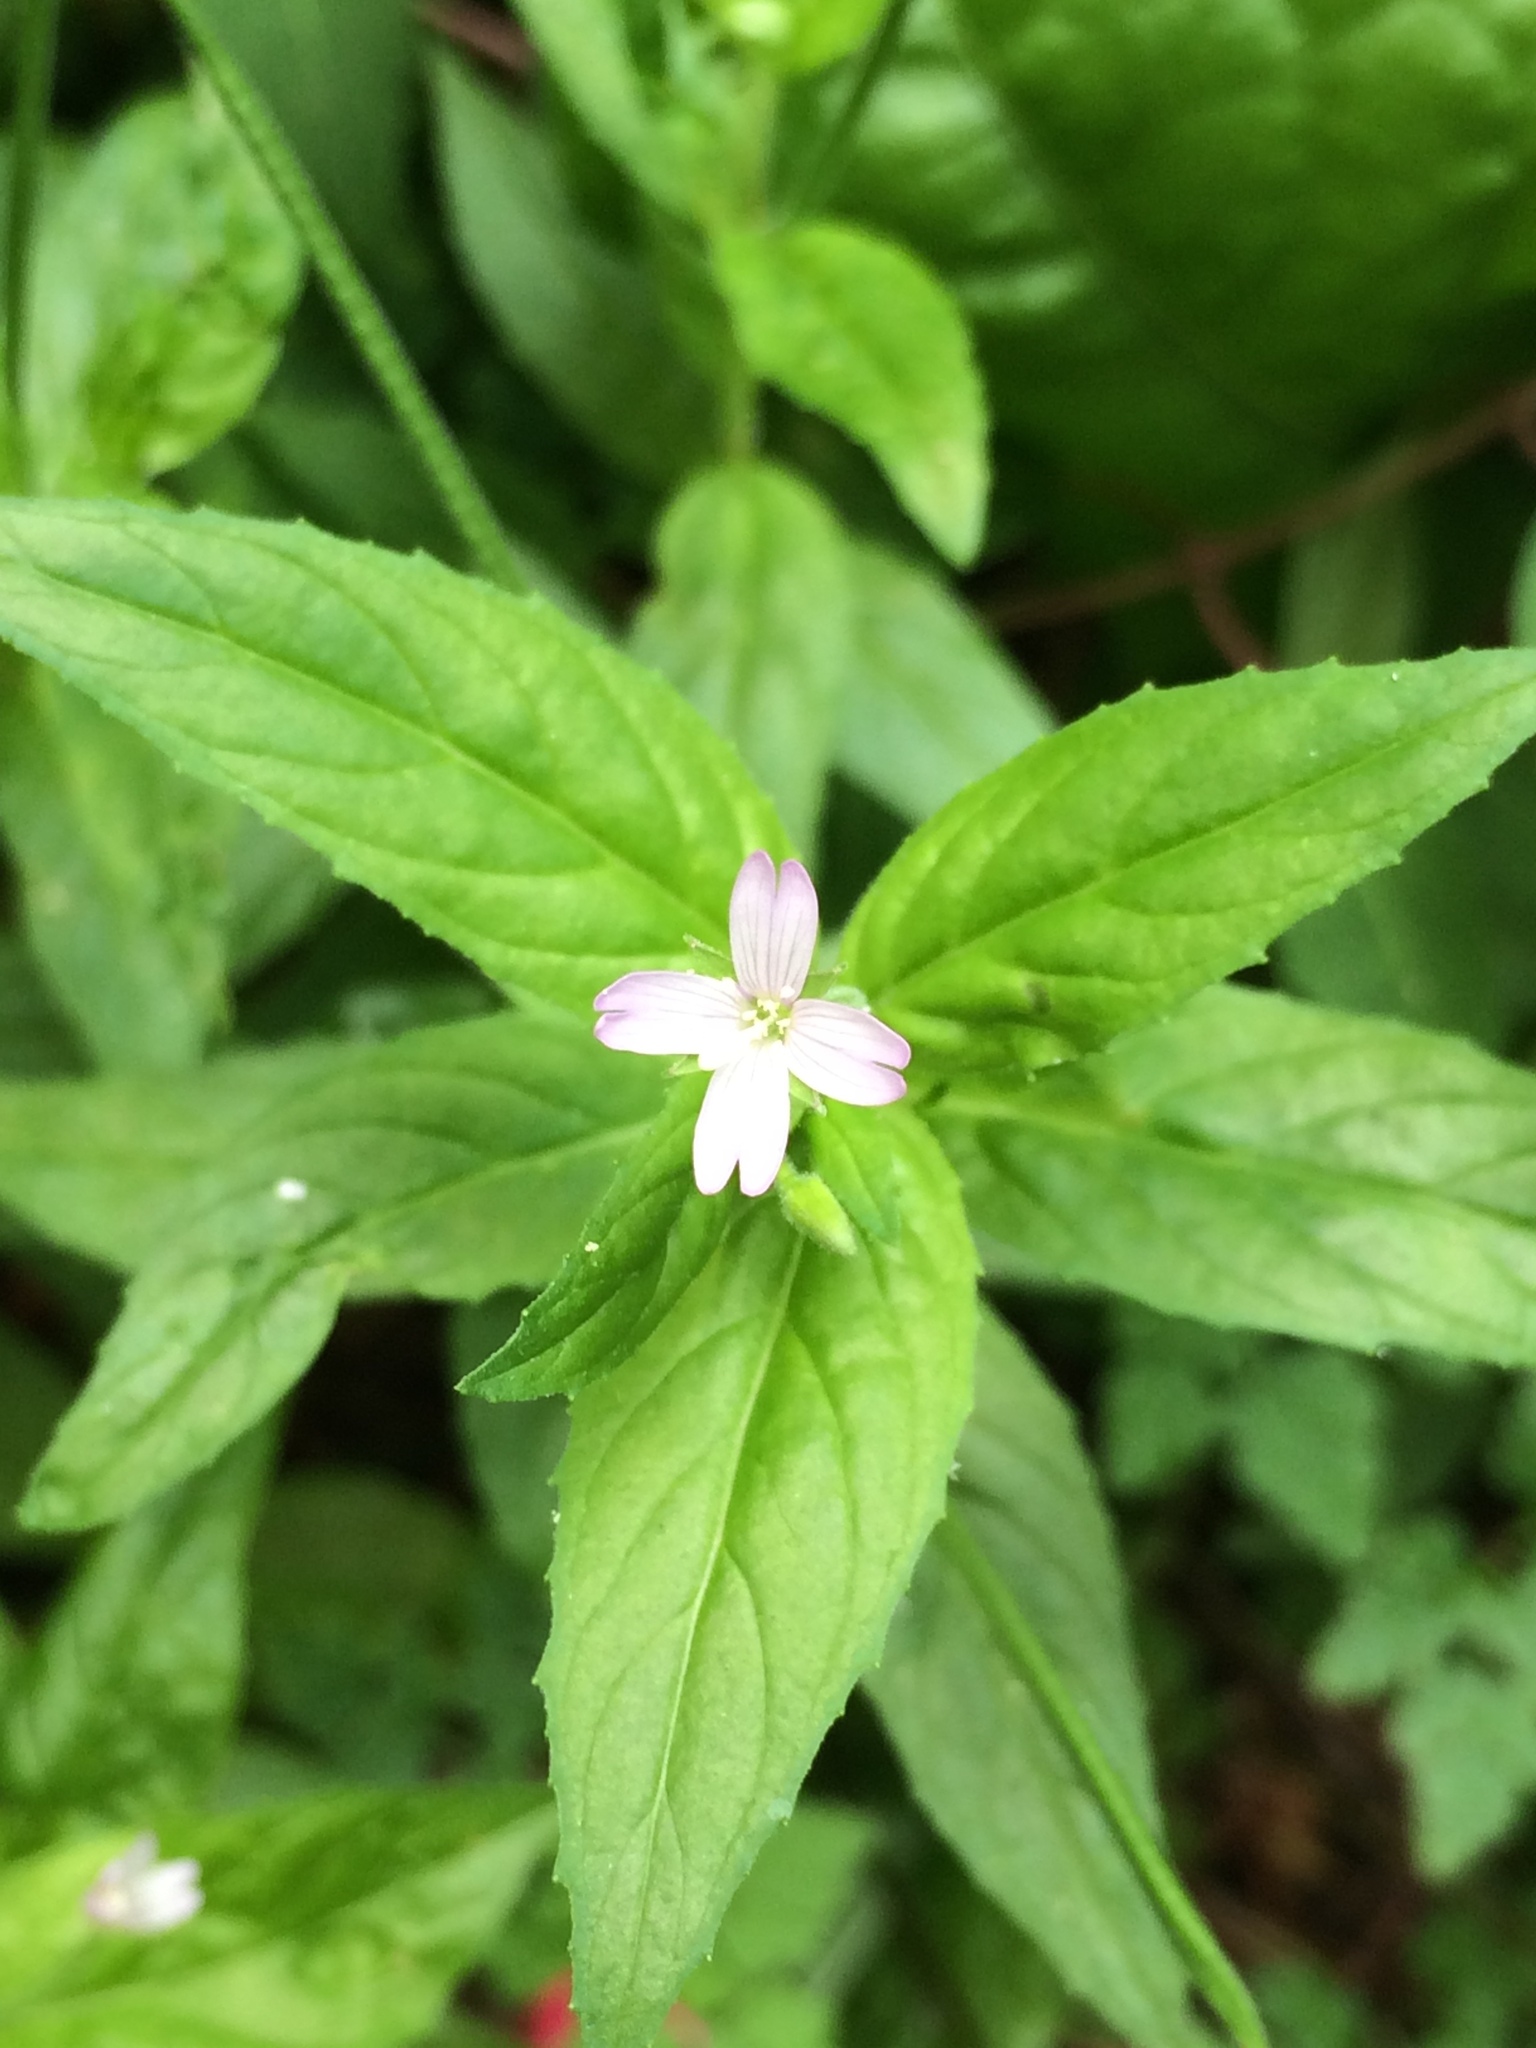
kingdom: Plantae
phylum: Tracheophyta
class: Magnoliopsida
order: Myrtales
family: Onagraceae
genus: Epilobium
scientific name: Epilobium ciliatum
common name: American willowherb
